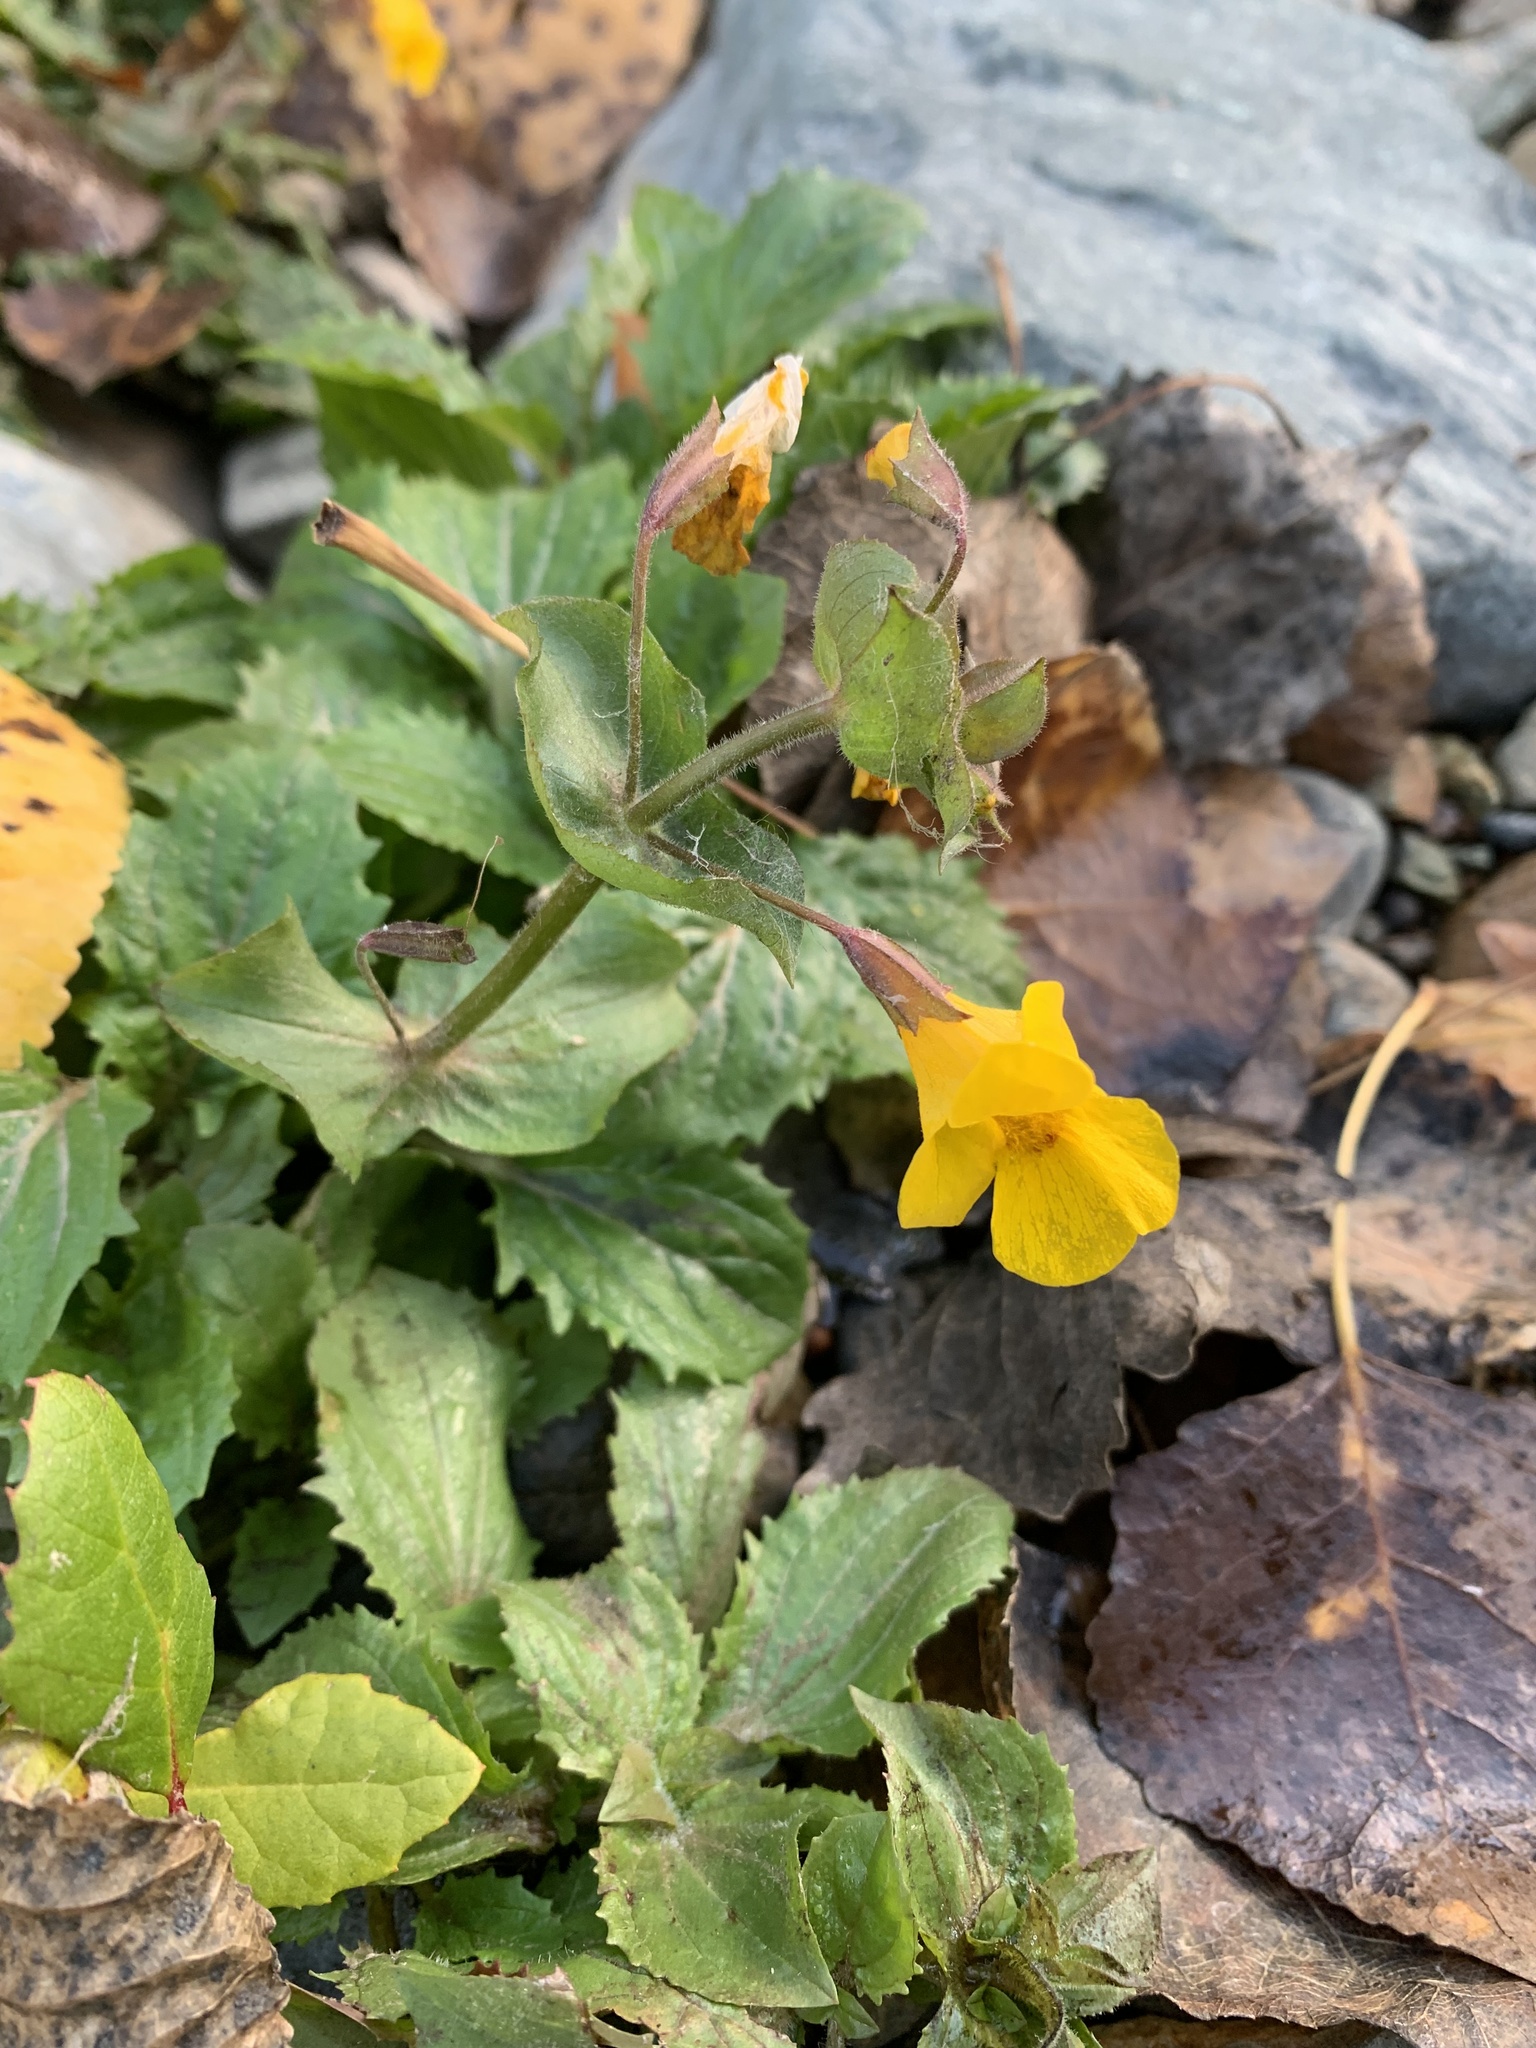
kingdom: Plantae
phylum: Tracheophyta
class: Magnoliopsida
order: Lamiales
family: Phrymaceae
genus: Erythranthe
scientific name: Erythranthe guttata
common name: Monkeyflower
